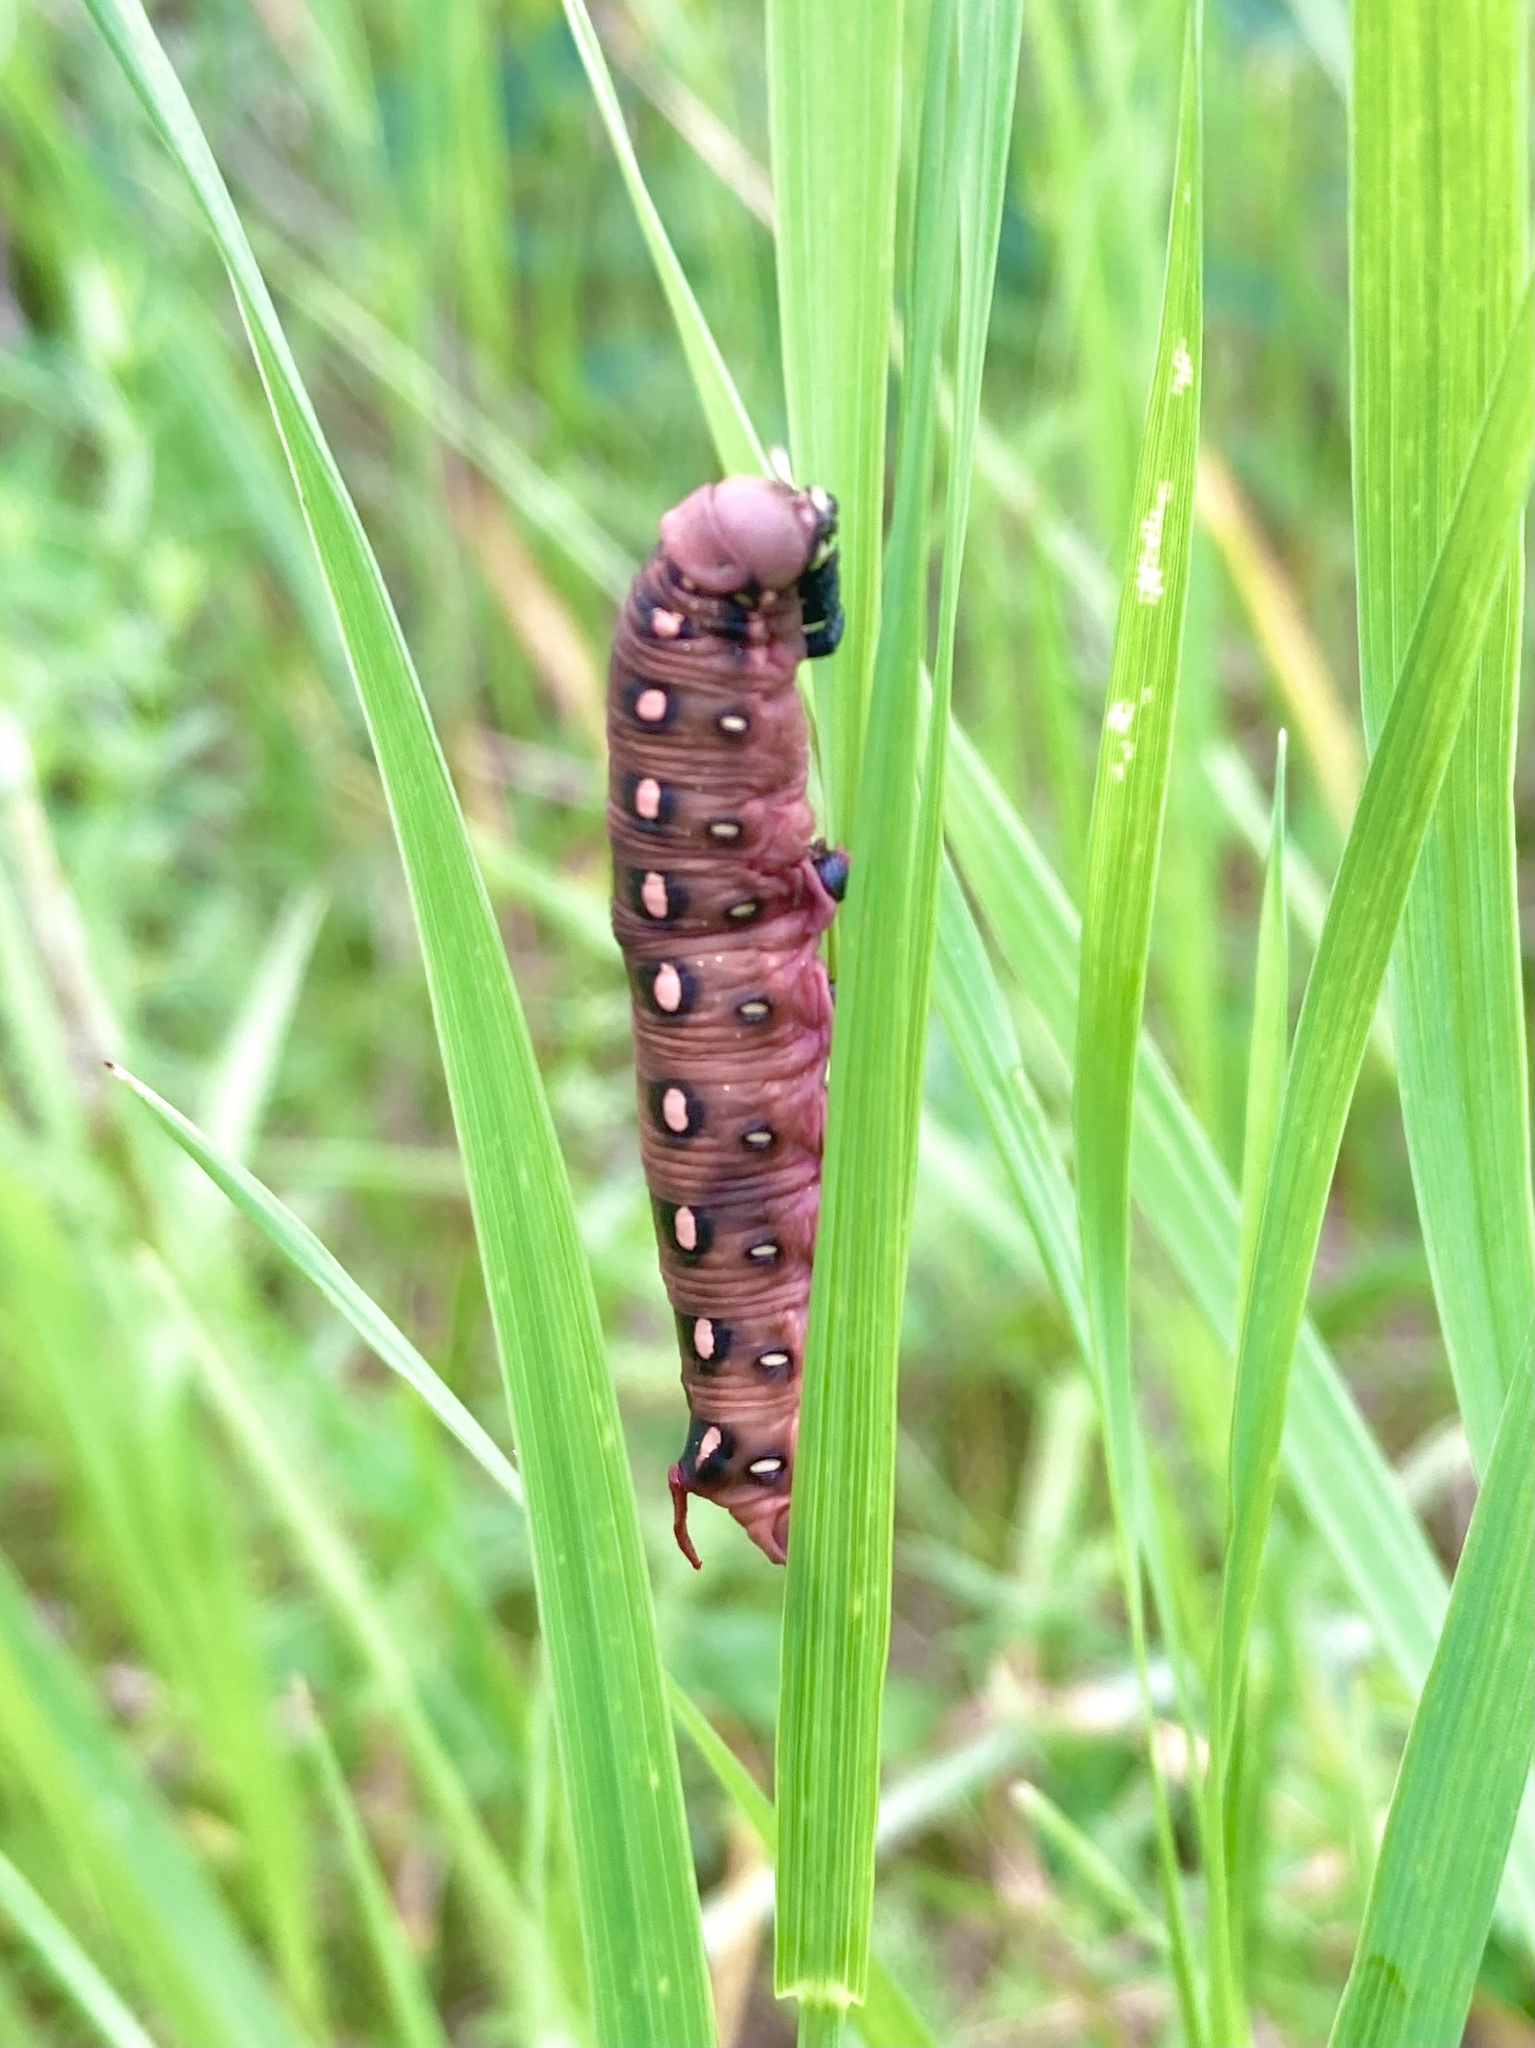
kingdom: Animalia
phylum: Arthropoda
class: Insecta
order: Lepidoptera
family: Sphingidae
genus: Hyles
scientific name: Hyles gallii
